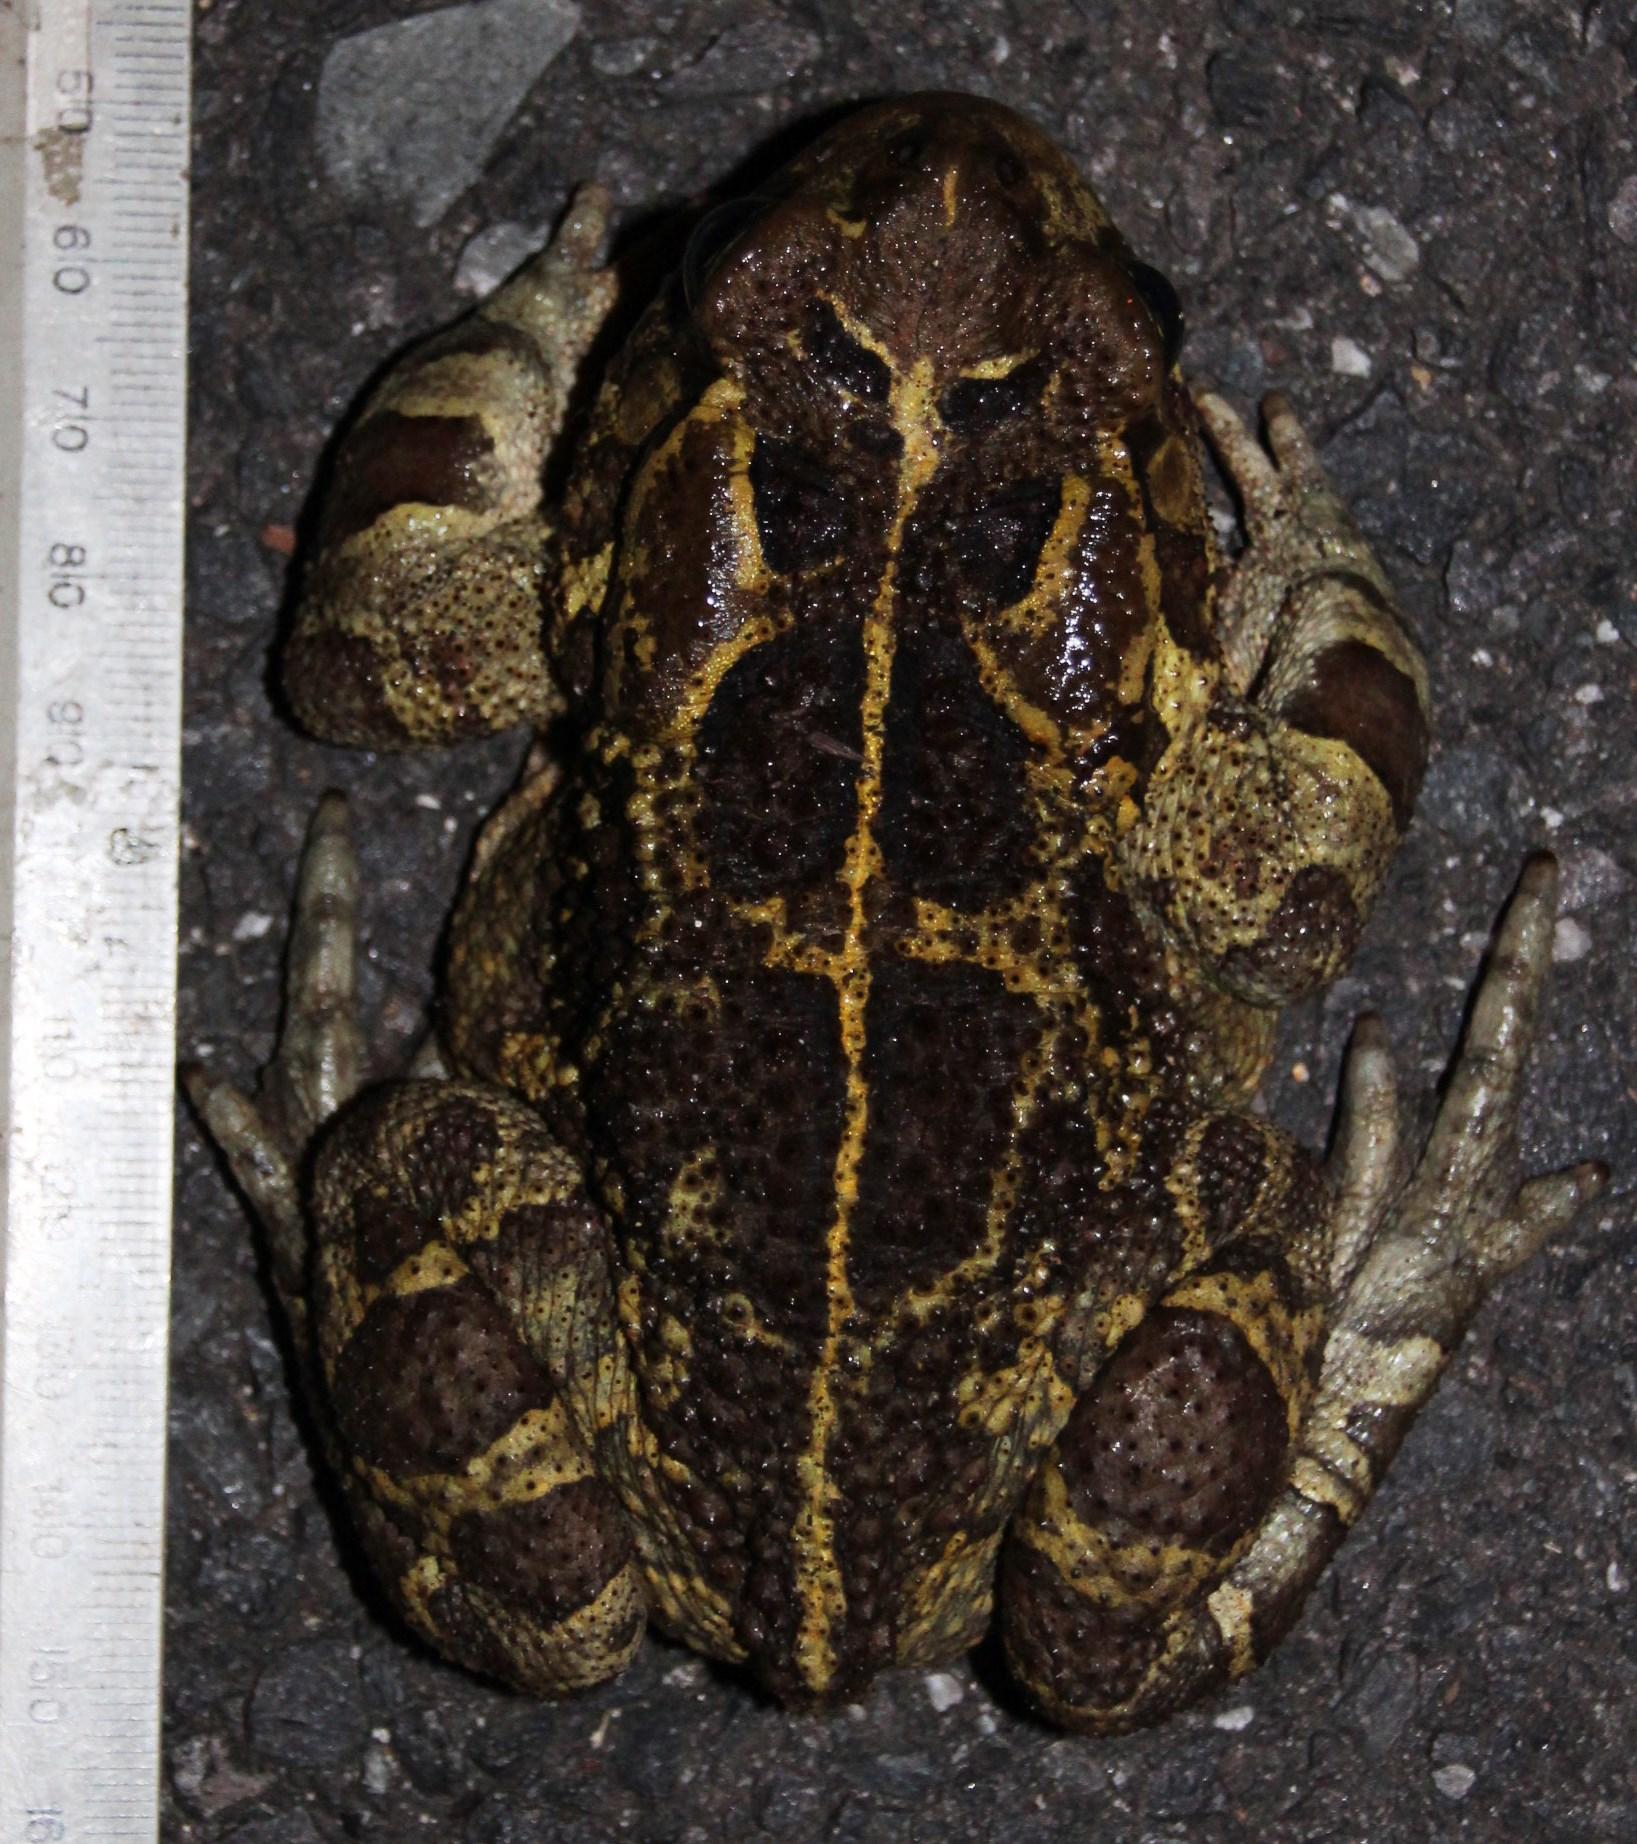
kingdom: Animalia
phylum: Chordata
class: Amphibia
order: Anura
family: Bufonidae
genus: Sclerophrys
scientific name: Sclerophrys pantherina
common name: Panther toad
